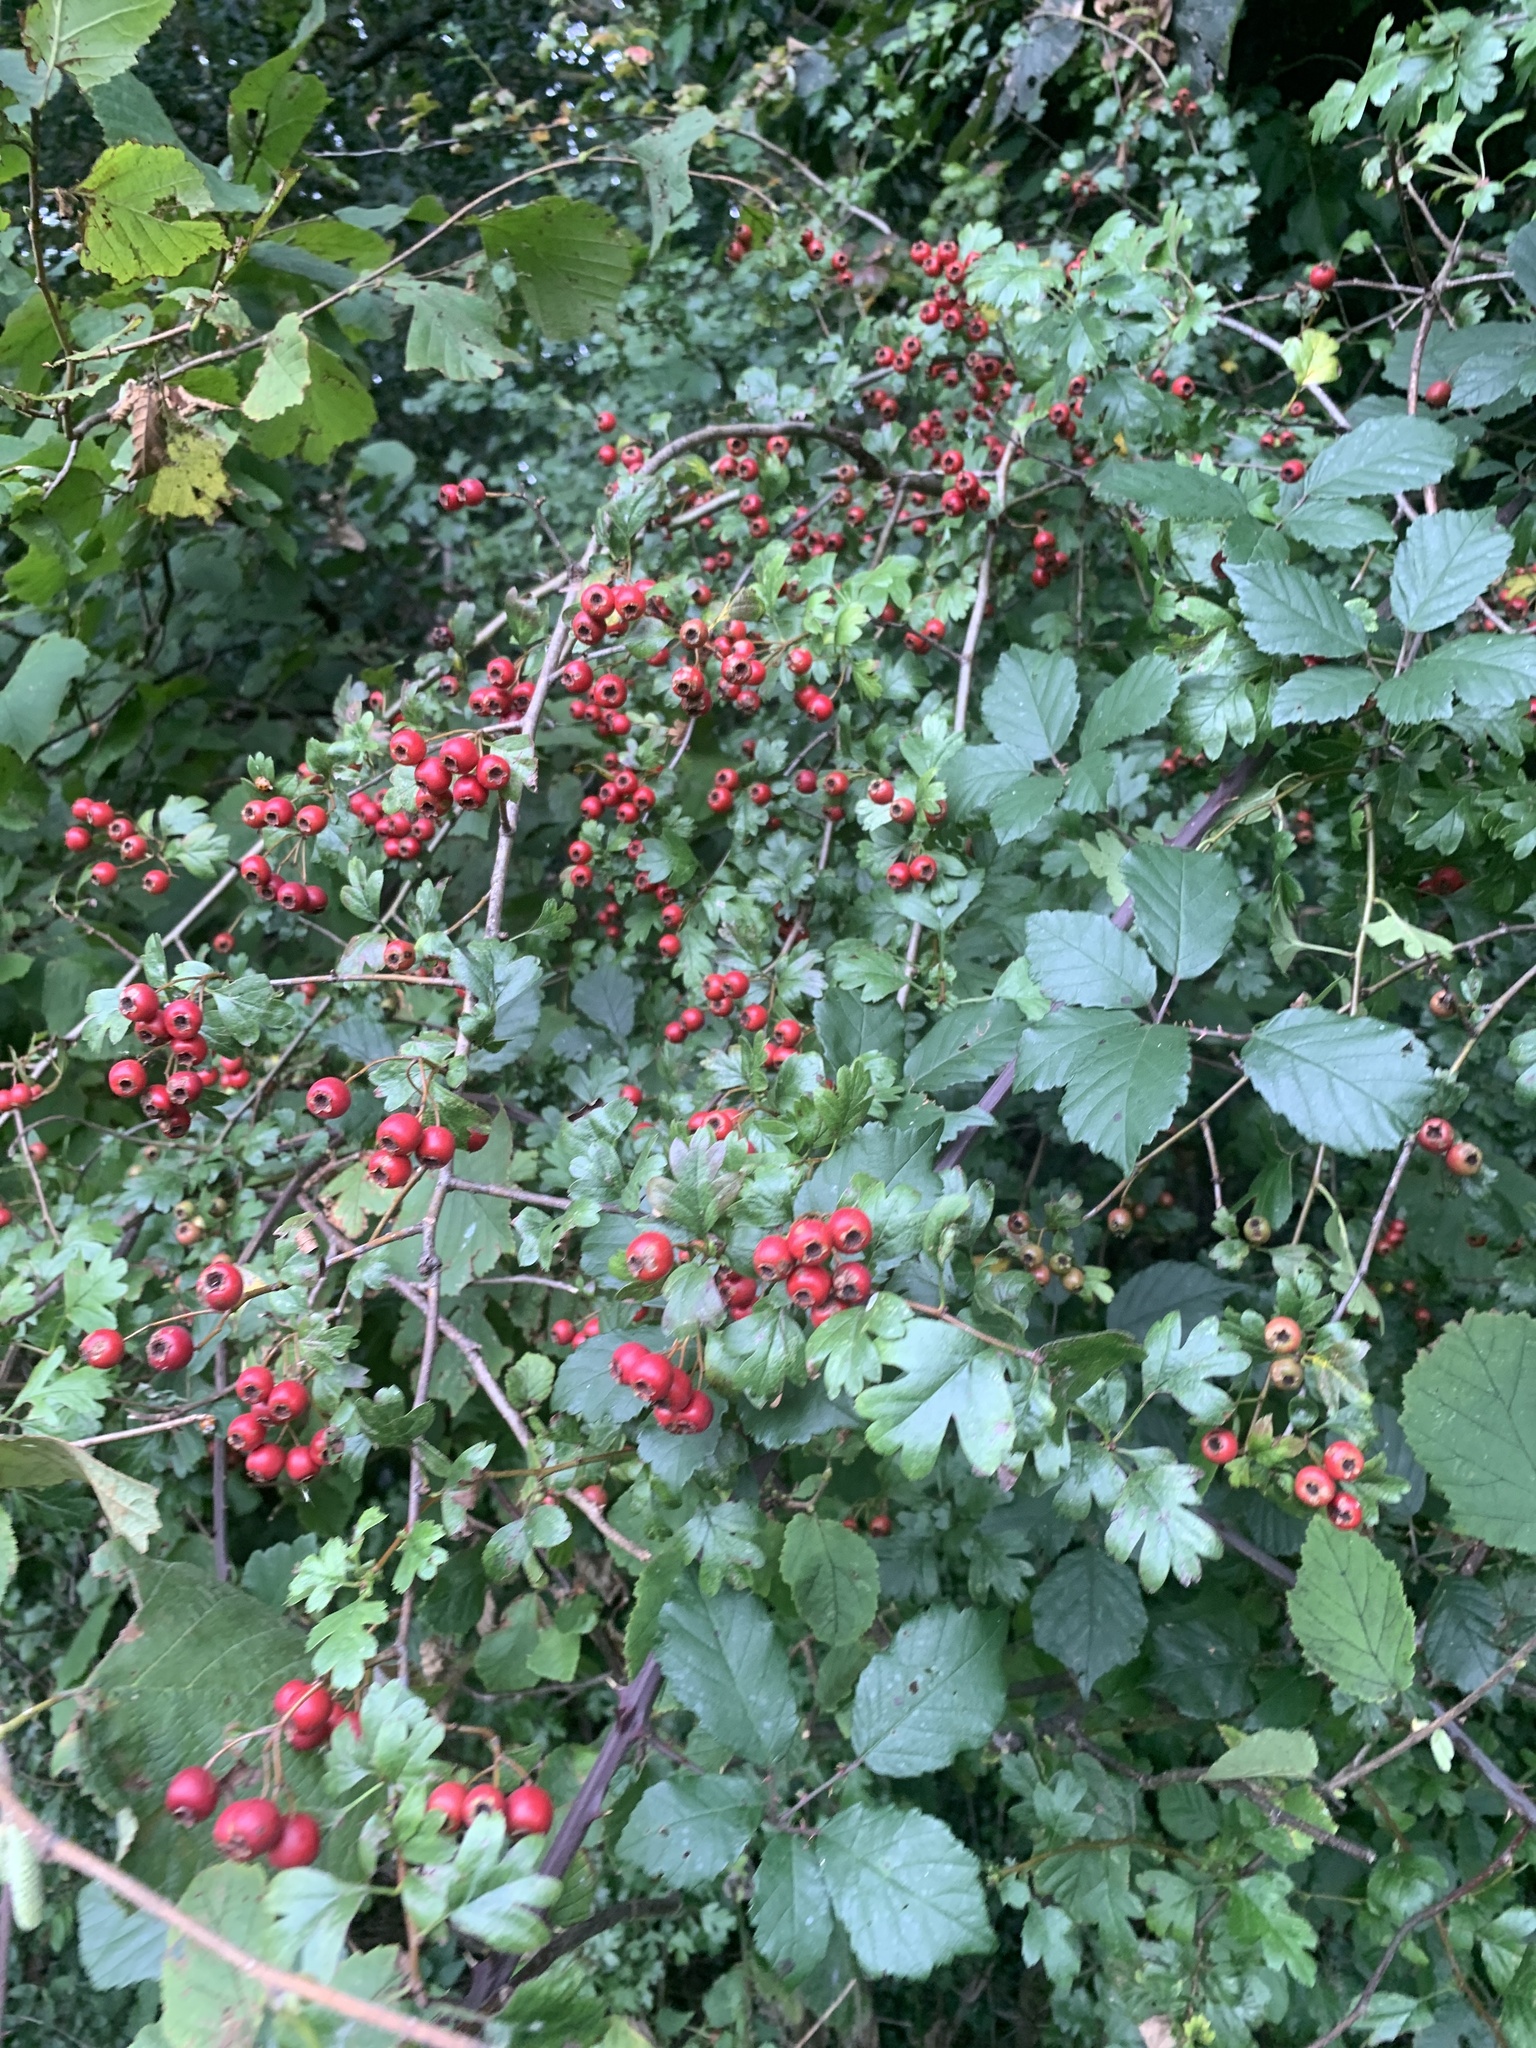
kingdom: Plantae
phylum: Tracheophyta
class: Magnoliopsida
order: Rosales
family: Rosaceae
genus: Crataegus
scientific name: Crataegus monogyna
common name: Hawthorn
